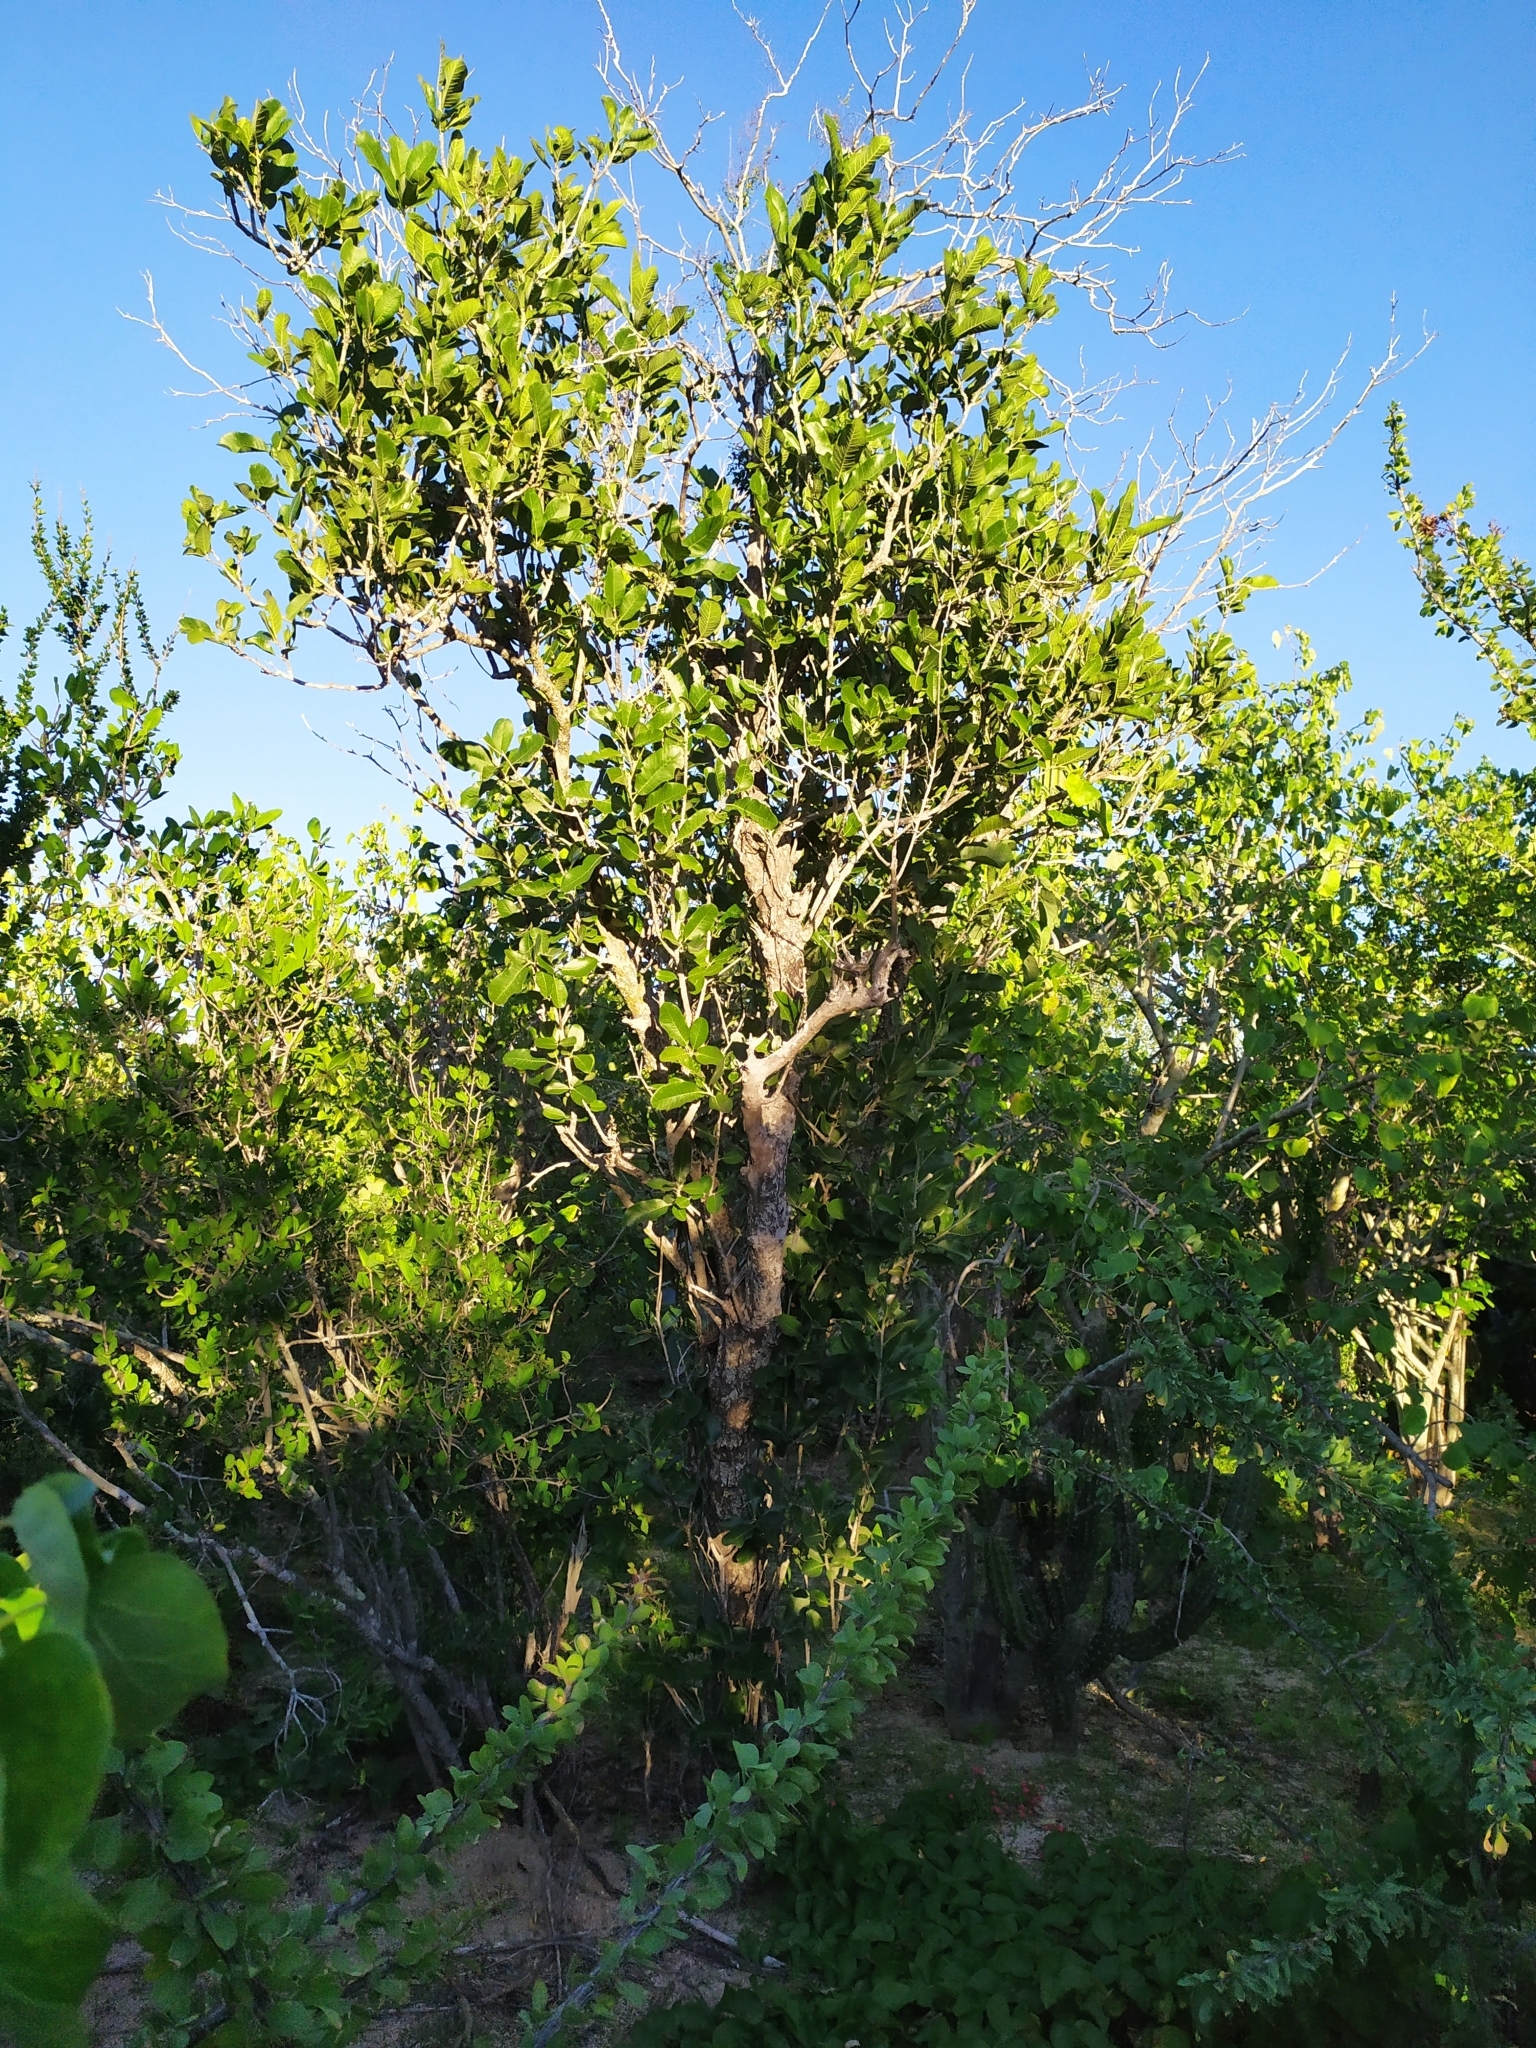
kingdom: Plantae
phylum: Tracheophyta
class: Magnoliopsida
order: Sapindales
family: Rutaceae
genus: Esenbeckia
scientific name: Esenbeckia flava
